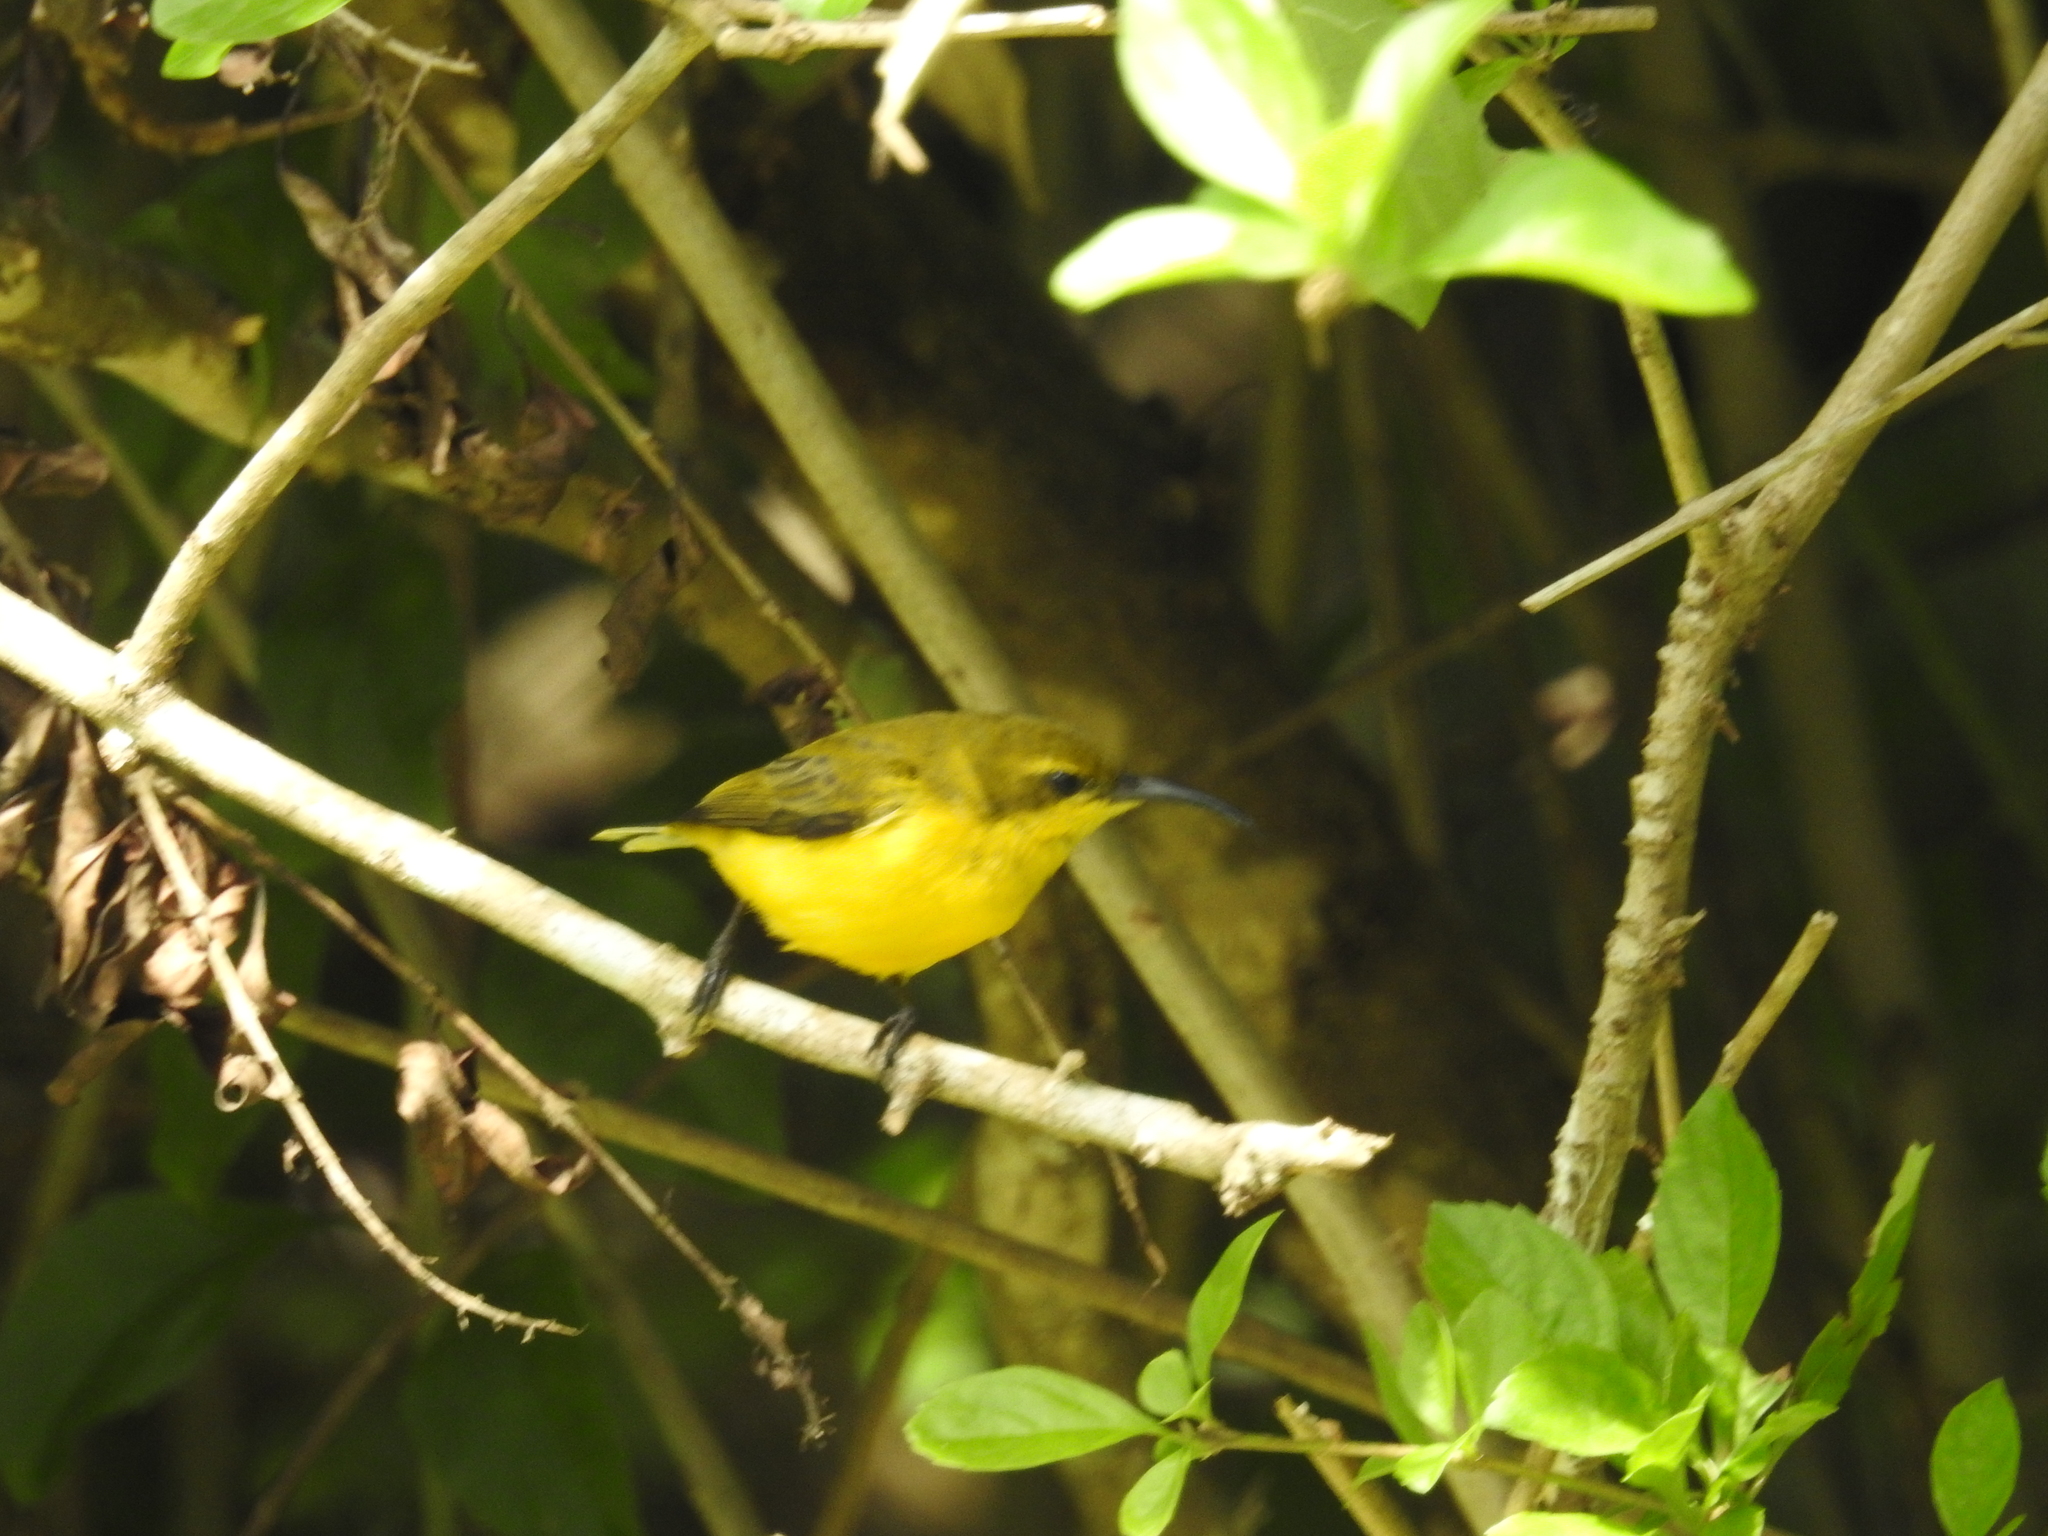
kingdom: Animalia
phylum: Chordata
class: Aves
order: Passeriformes
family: Nectariniidae
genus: Cinnyris
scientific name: Cinnyris
